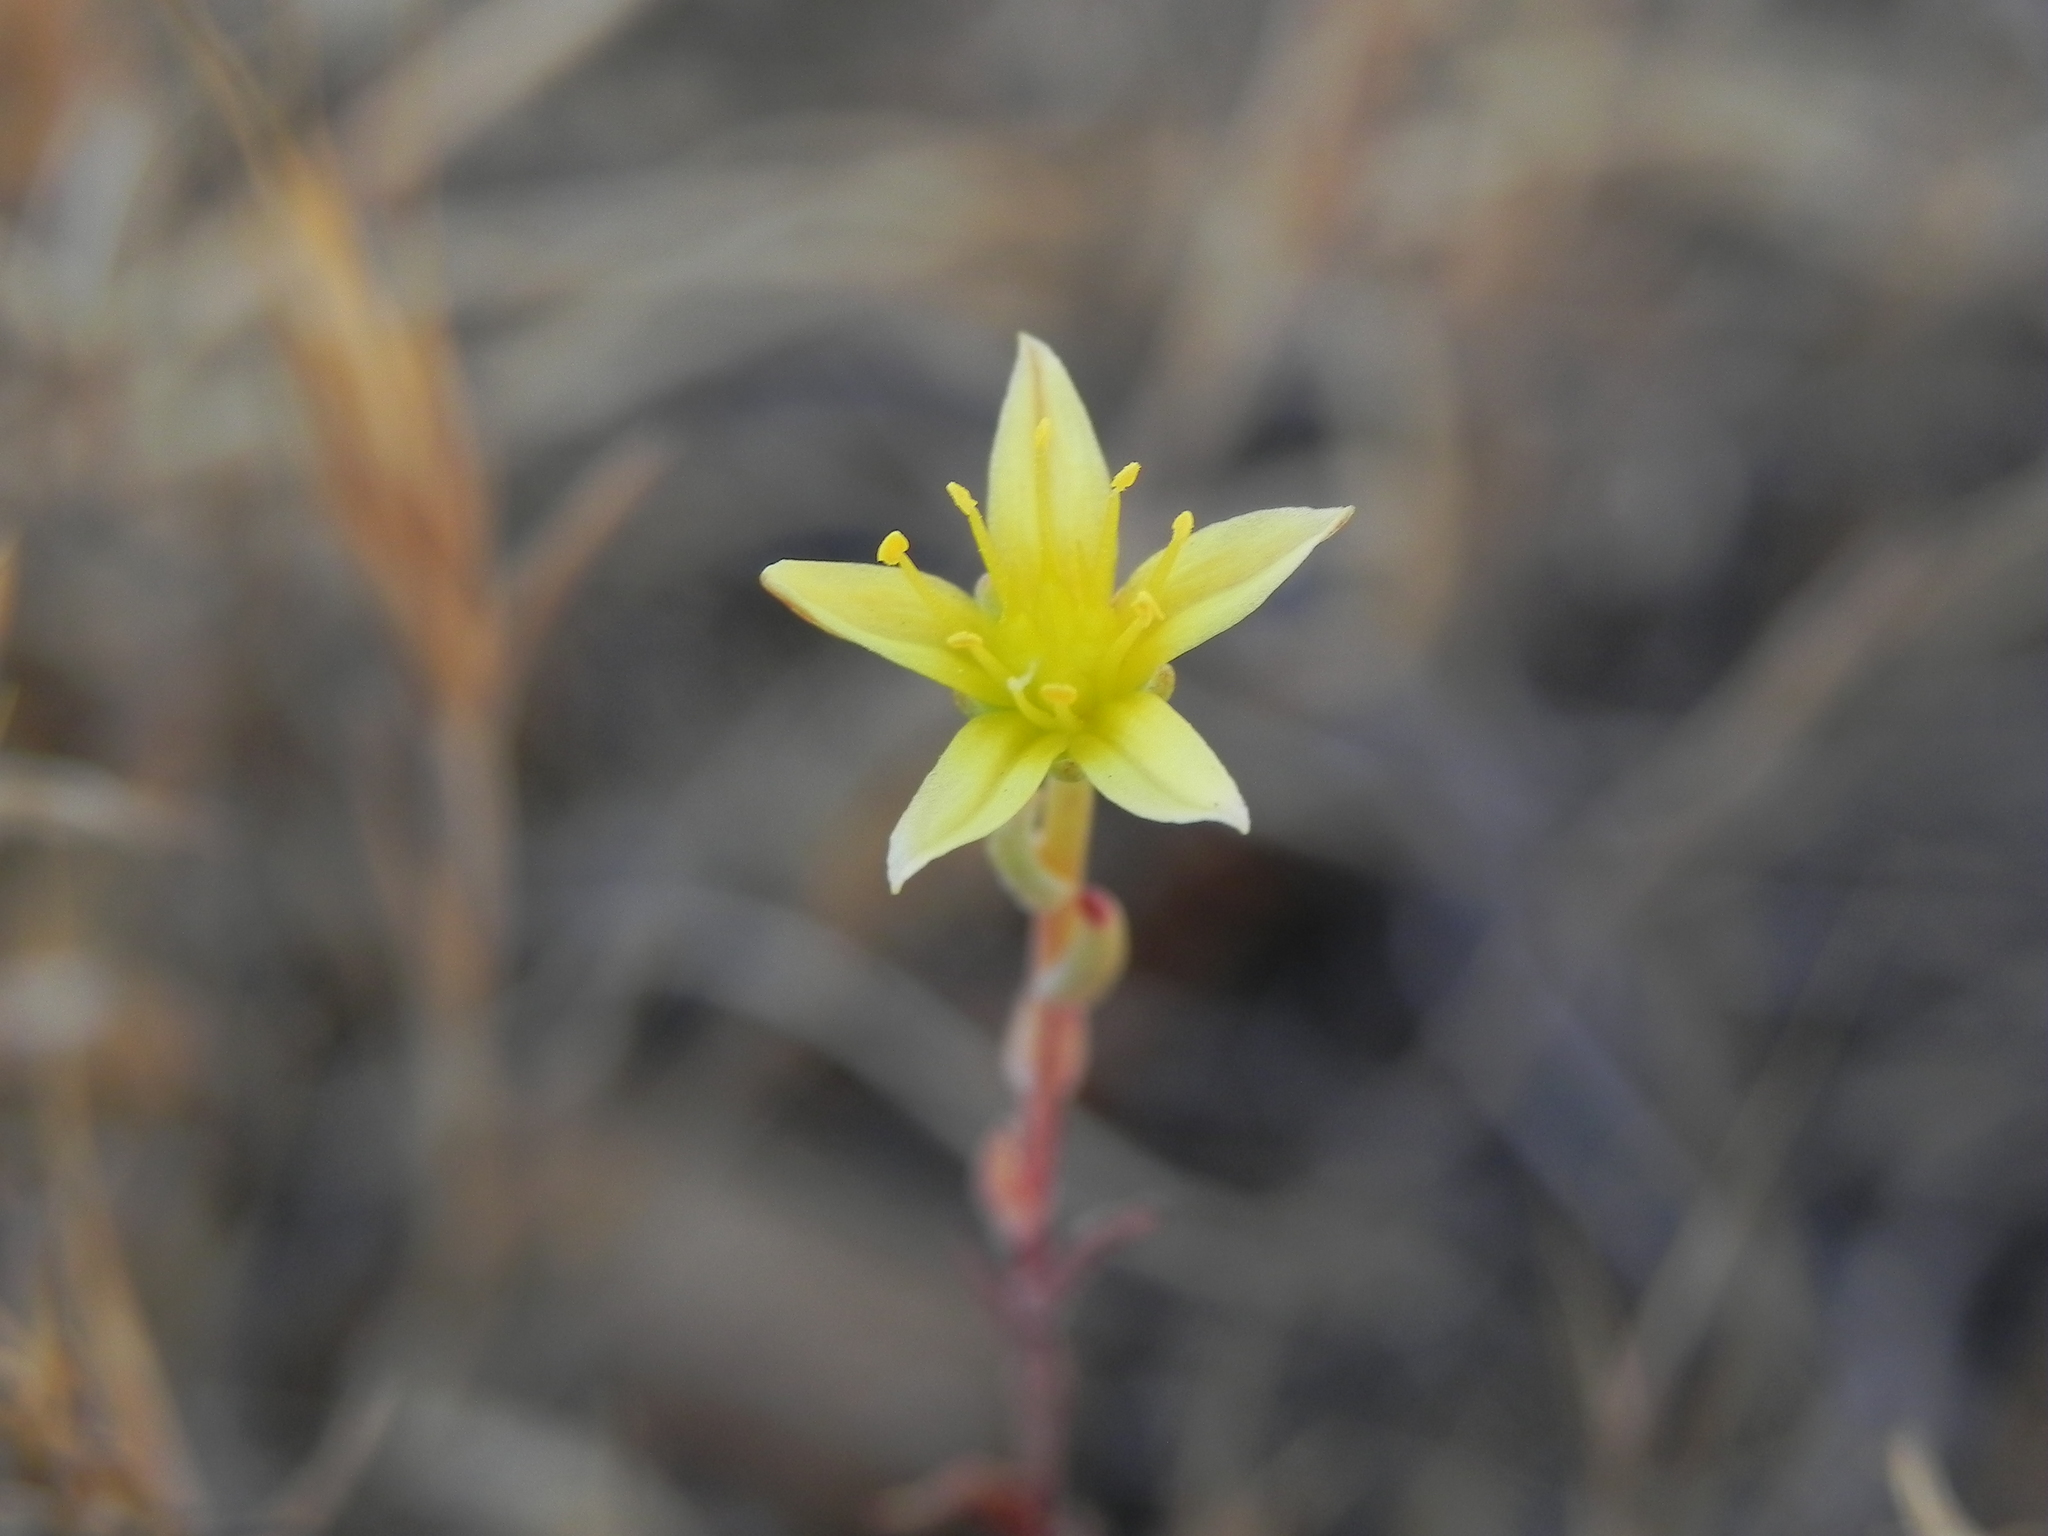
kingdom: Plantae
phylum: Tracheophyta
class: Magnoliopsida
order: Saxifragales
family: Crassulaceae
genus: Dudleya
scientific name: Dudleya variegata
